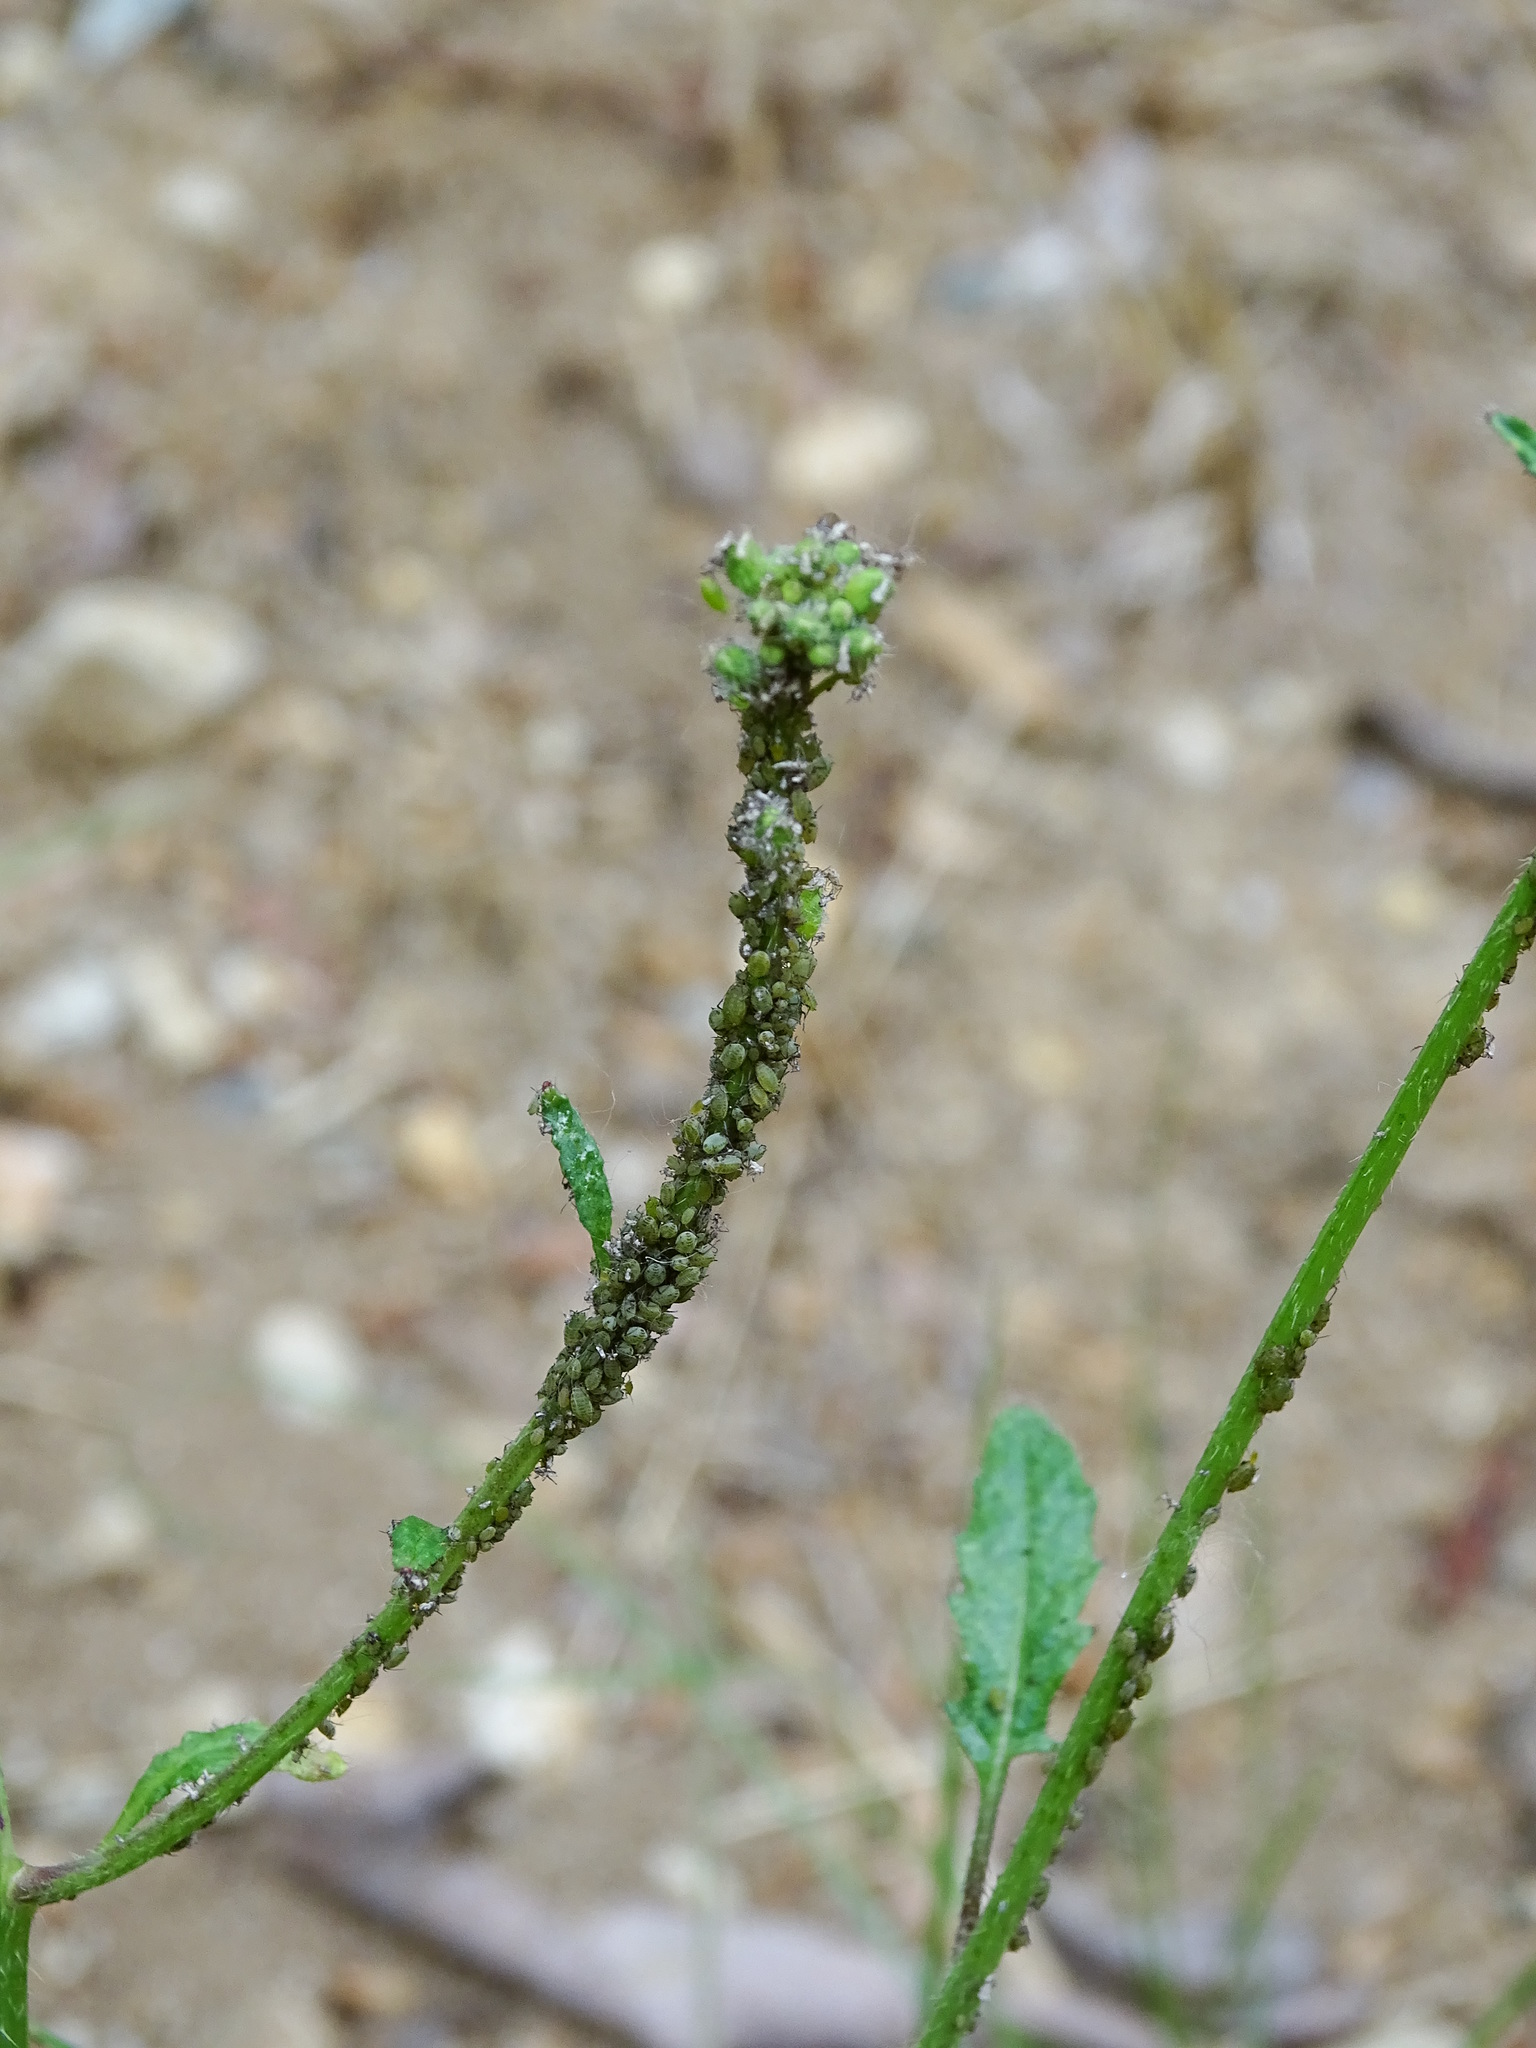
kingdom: Animalia
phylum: Arthropoda
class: Insecta
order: Hemiptera
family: Aphididae
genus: Lipaphis
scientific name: Lipaphis pseudobrassicae
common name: Turnip aphid
